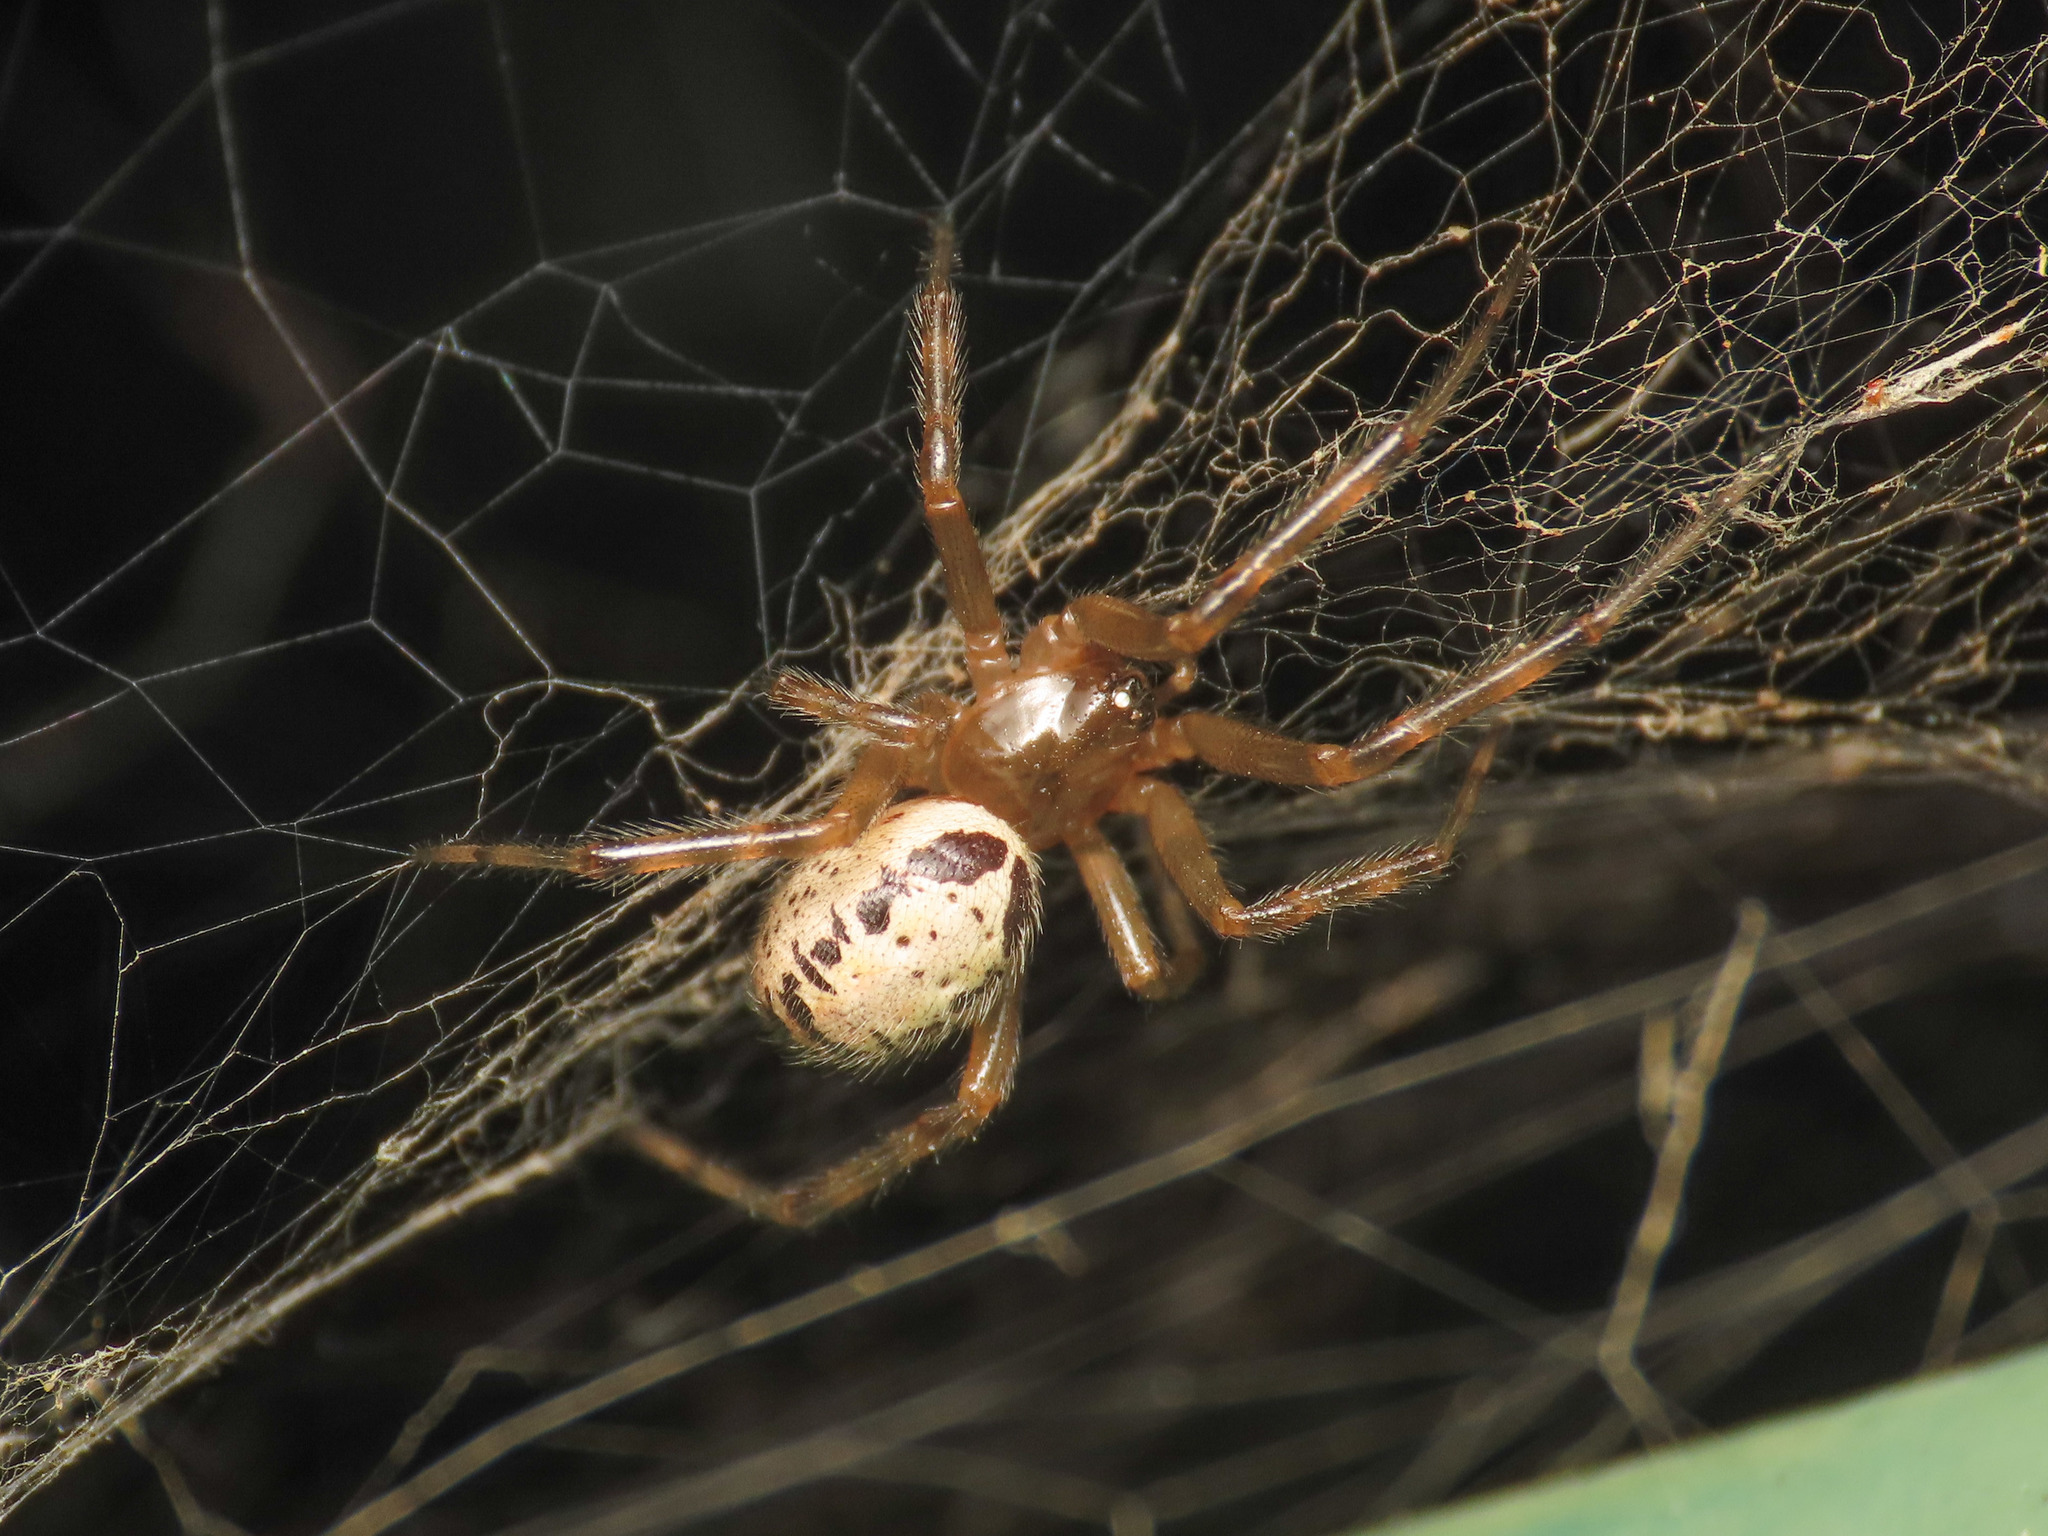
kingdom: Animalia
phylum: Arthropoda
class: Arachnida
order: Araneae
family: Theridiidae
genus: Steatoda
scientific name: Steatoda nobilis
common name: Cobweb weaver
